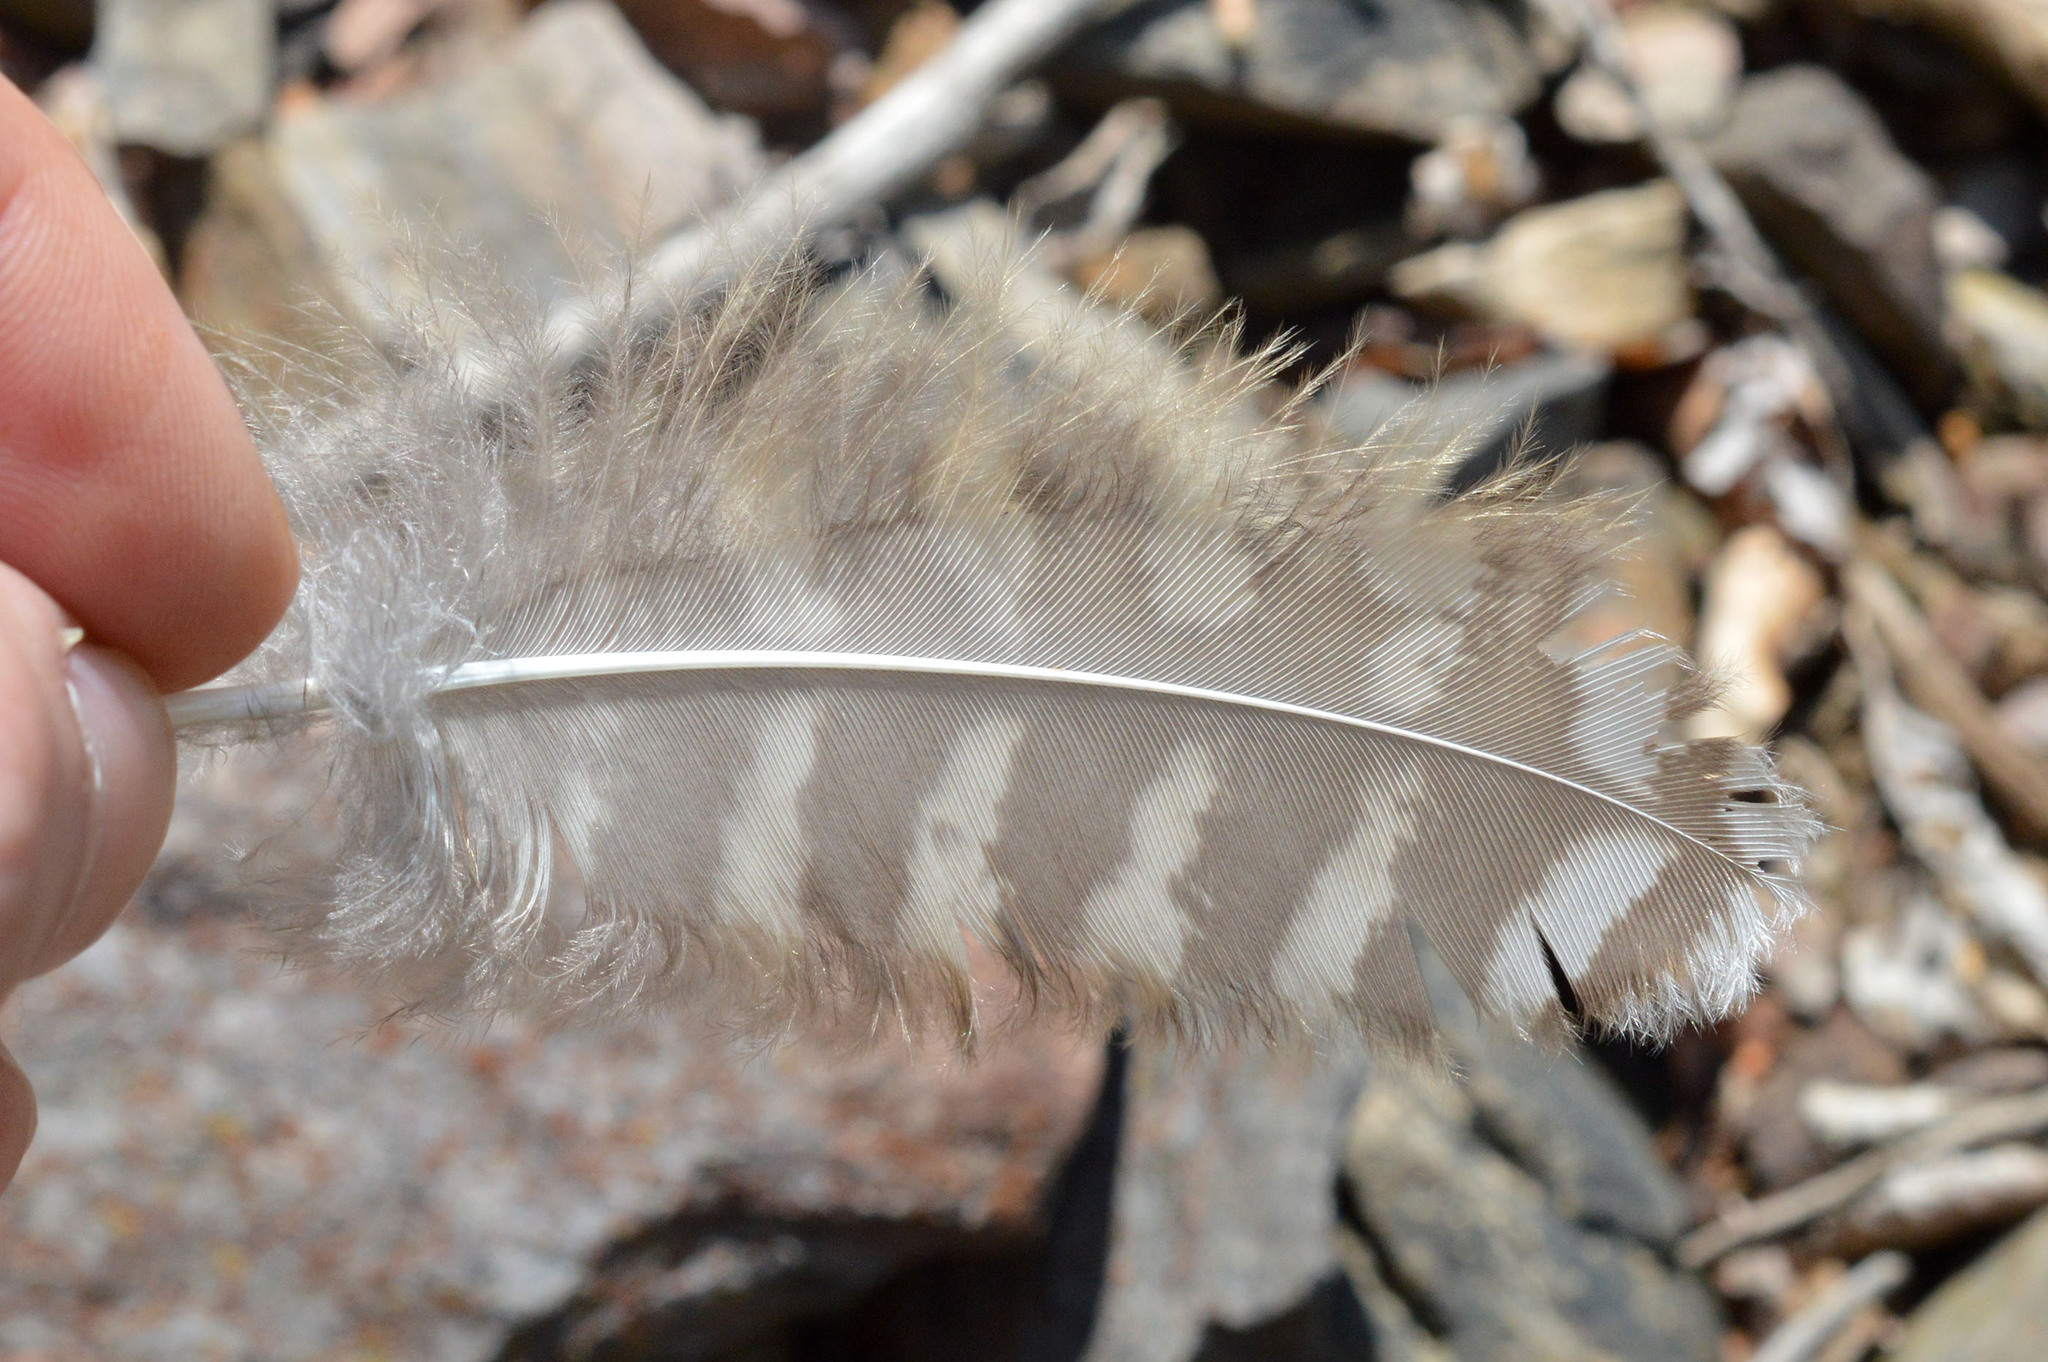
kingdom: Animalia
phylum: Chordata
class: Aves
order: Strigiformes
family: Strigidae
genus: Strix
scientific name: Strix aluco
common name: Tawny owl
